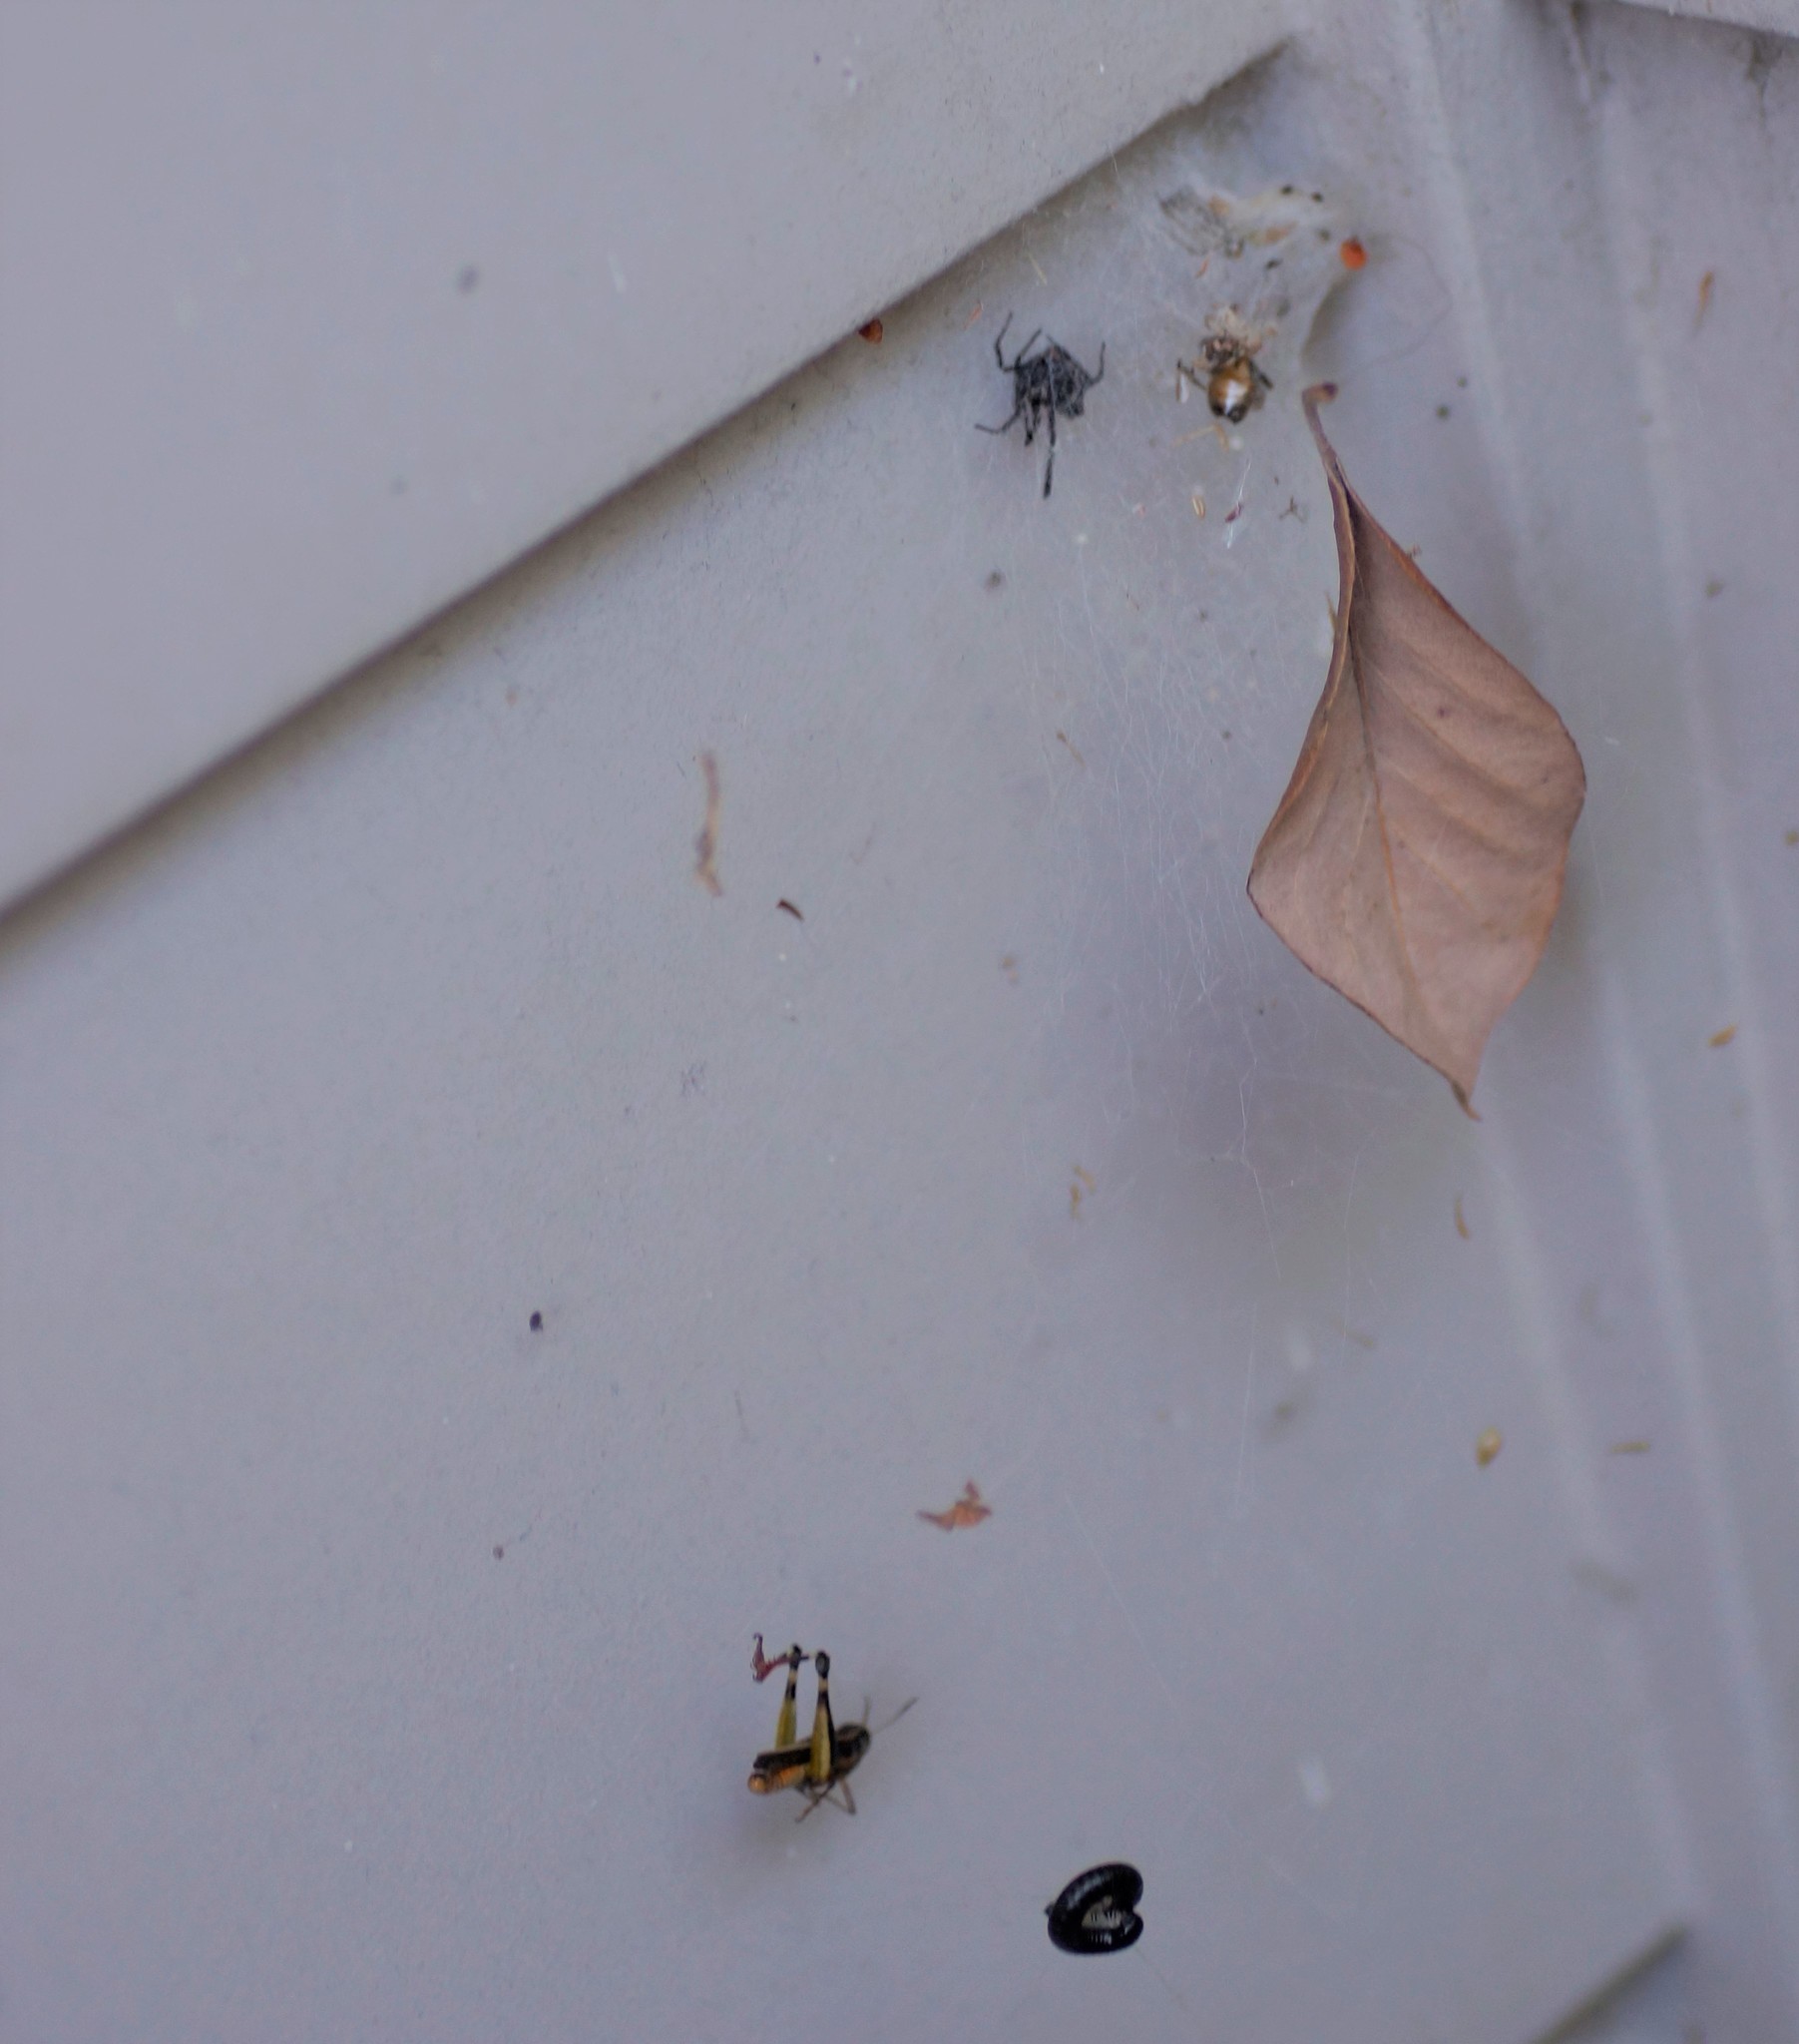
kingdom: Animalia
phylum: Arthropoda
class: Arachnida
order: Araneae
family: Theridiidae
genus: Latrodectus
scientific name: Latrodectus hasselti
